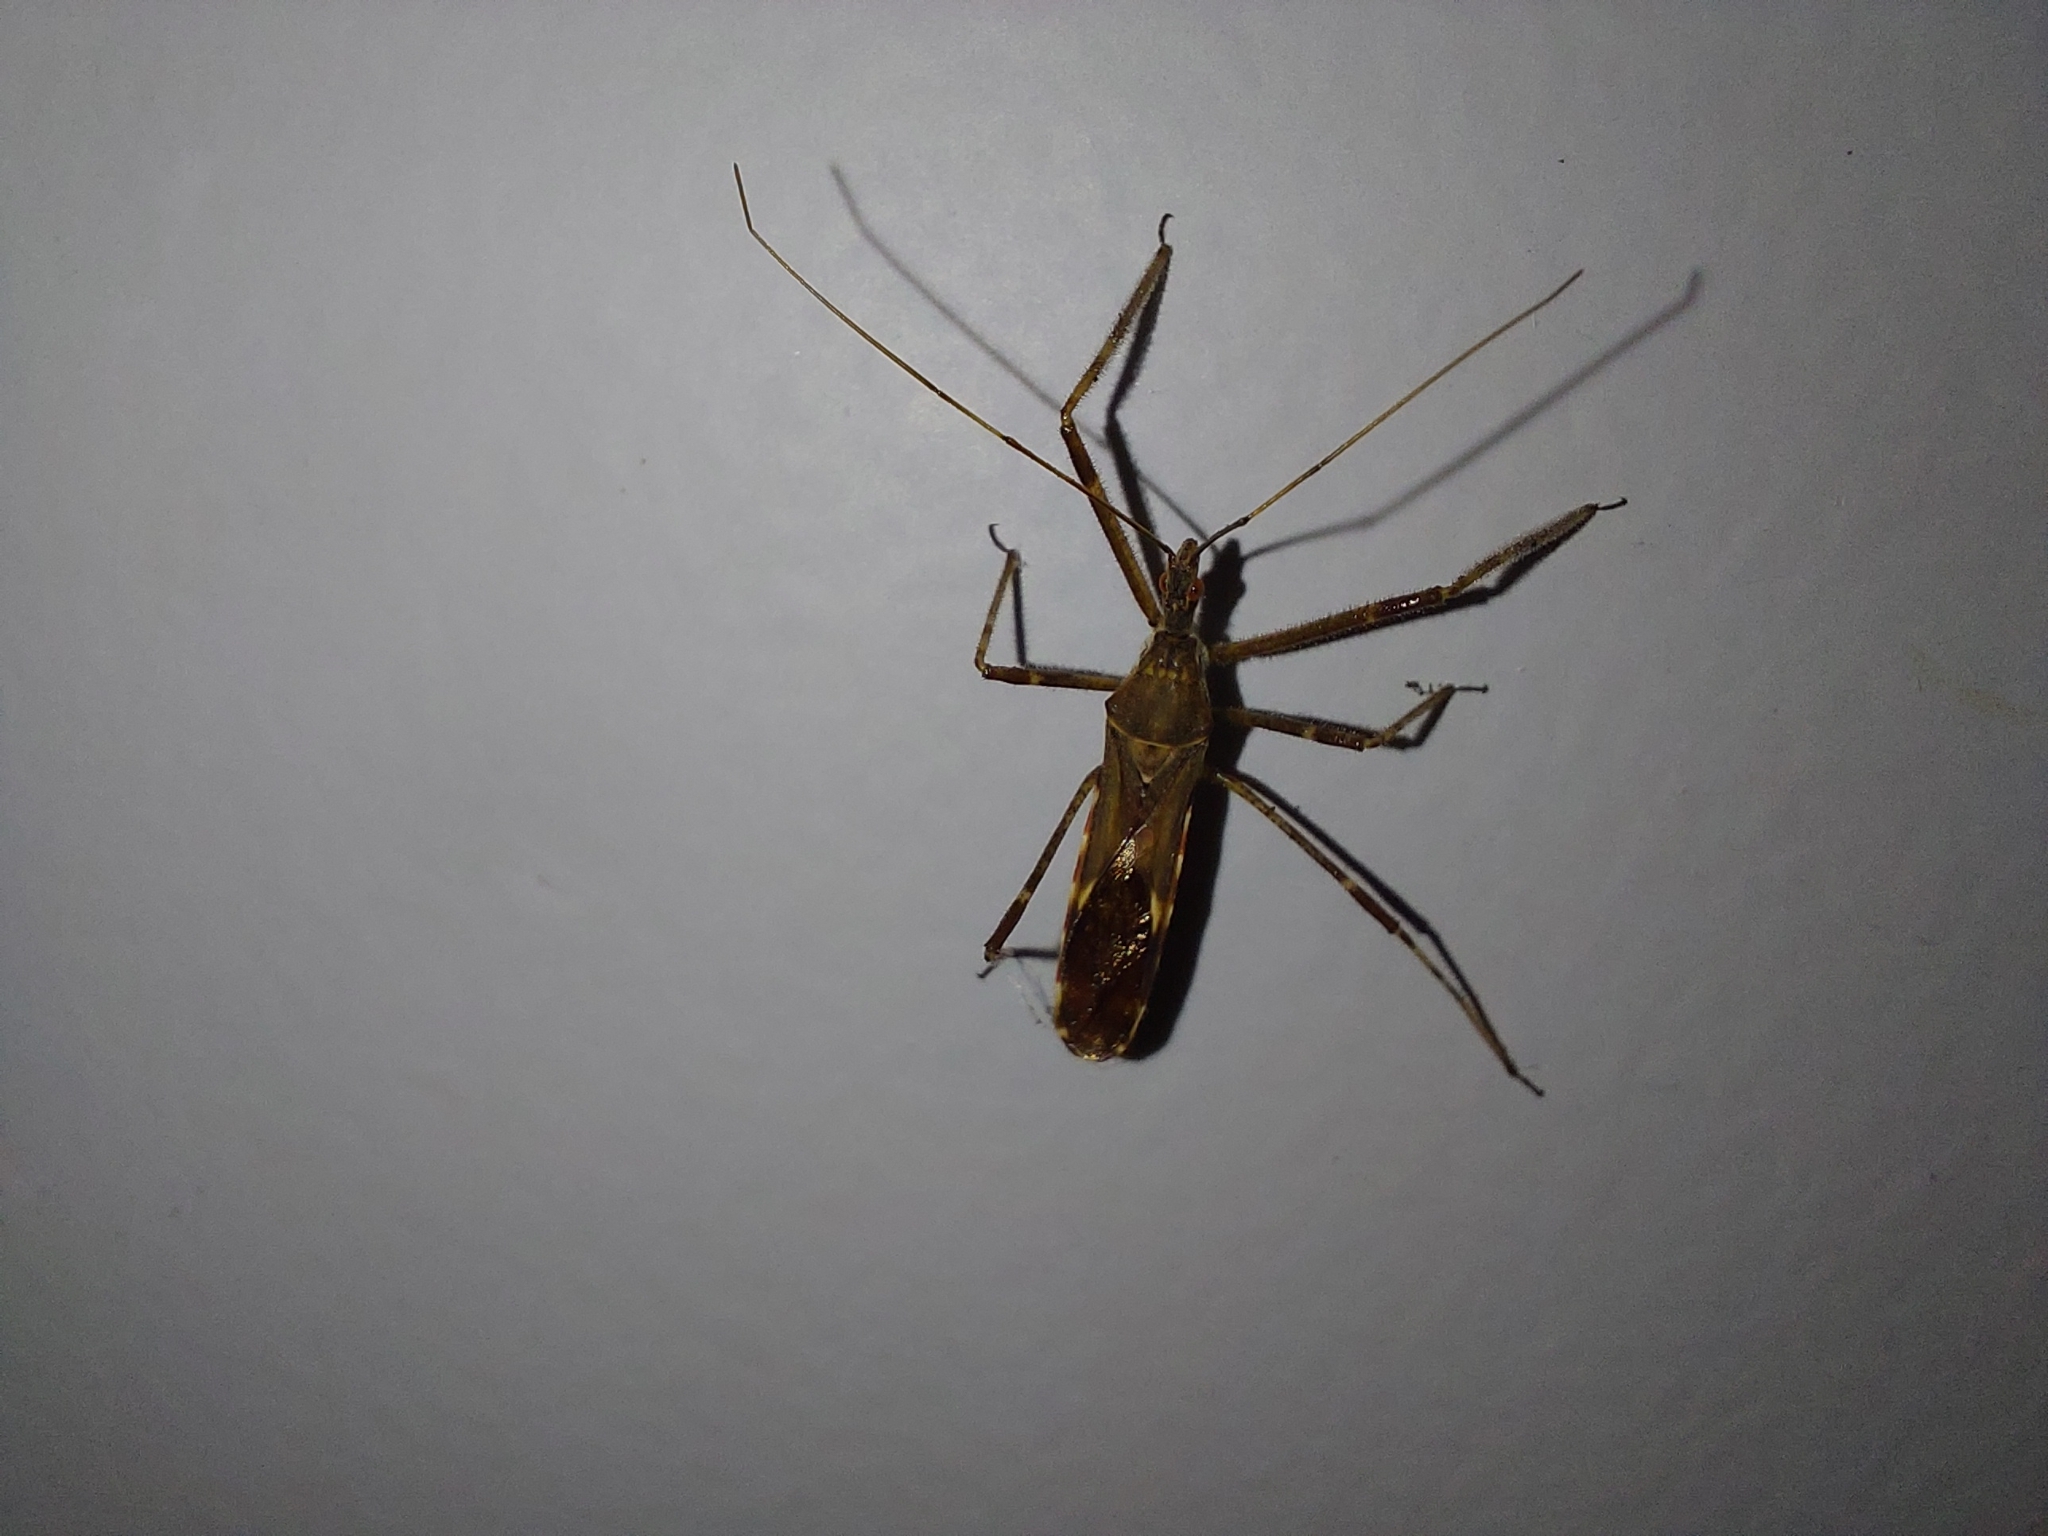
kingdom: Animalia
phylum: Arthropoda
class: Insecta
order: Hemiptera
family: Reduviidae
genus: Zelus
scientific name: Zelus tetracanthus
